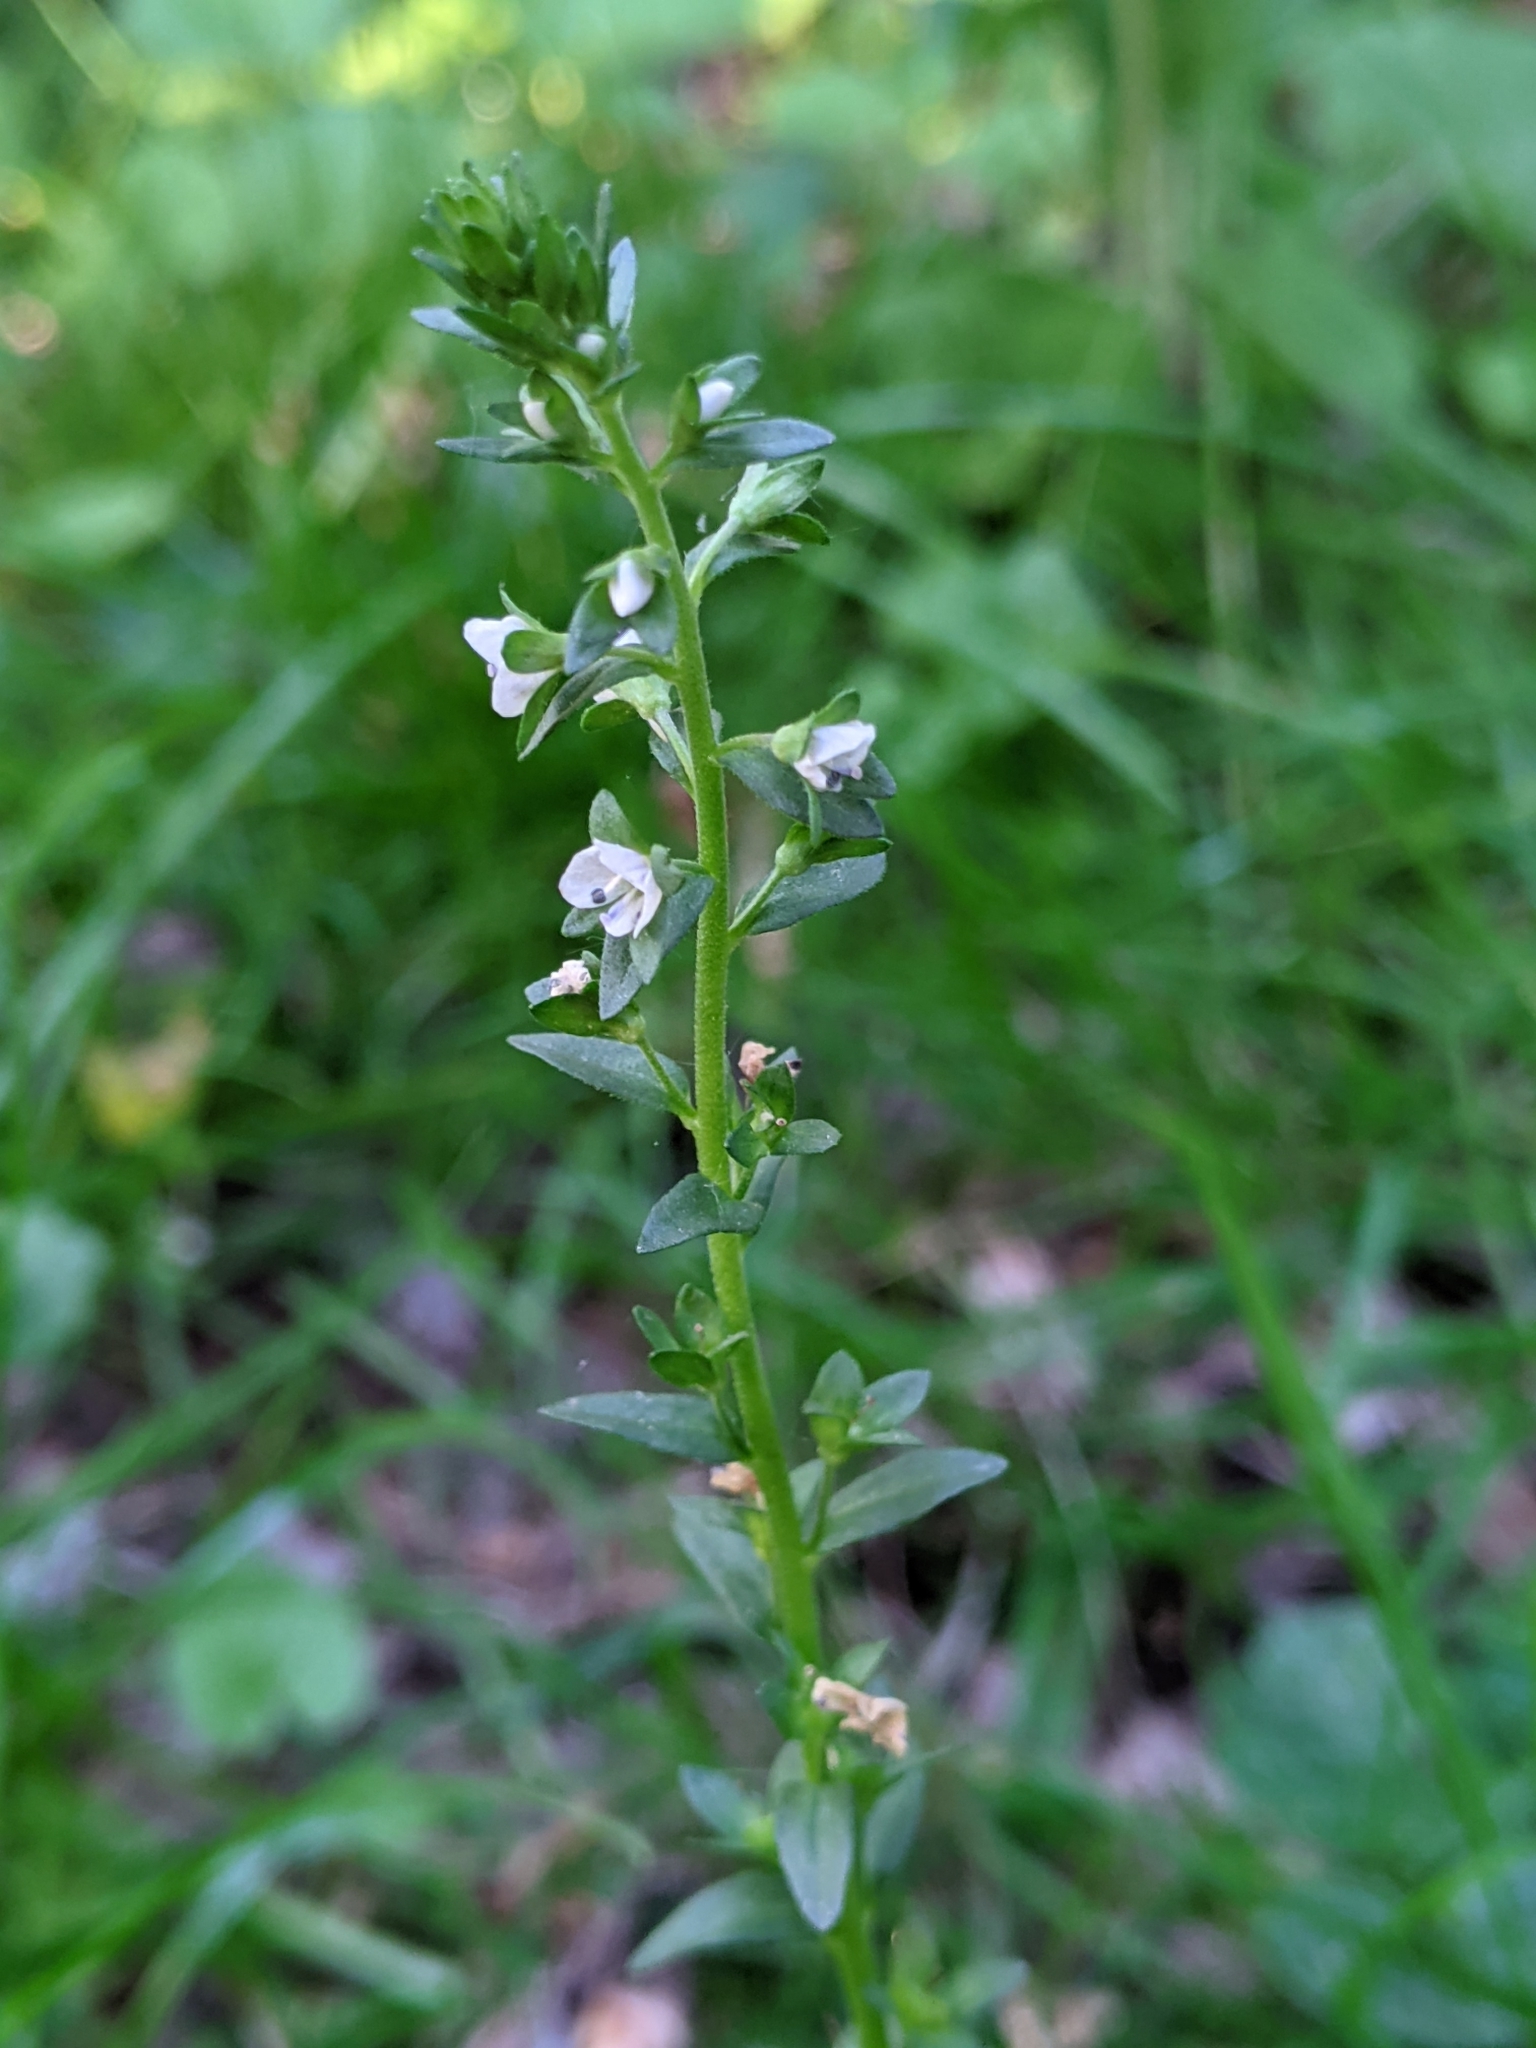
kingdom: Plantae
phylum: Tracheophyta
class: Magnoliopsida
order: Lamiales
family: Plantaginaceae
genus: Veronica
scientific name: Veronica serpyllifolia
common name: Thyme-leaved speedwell
